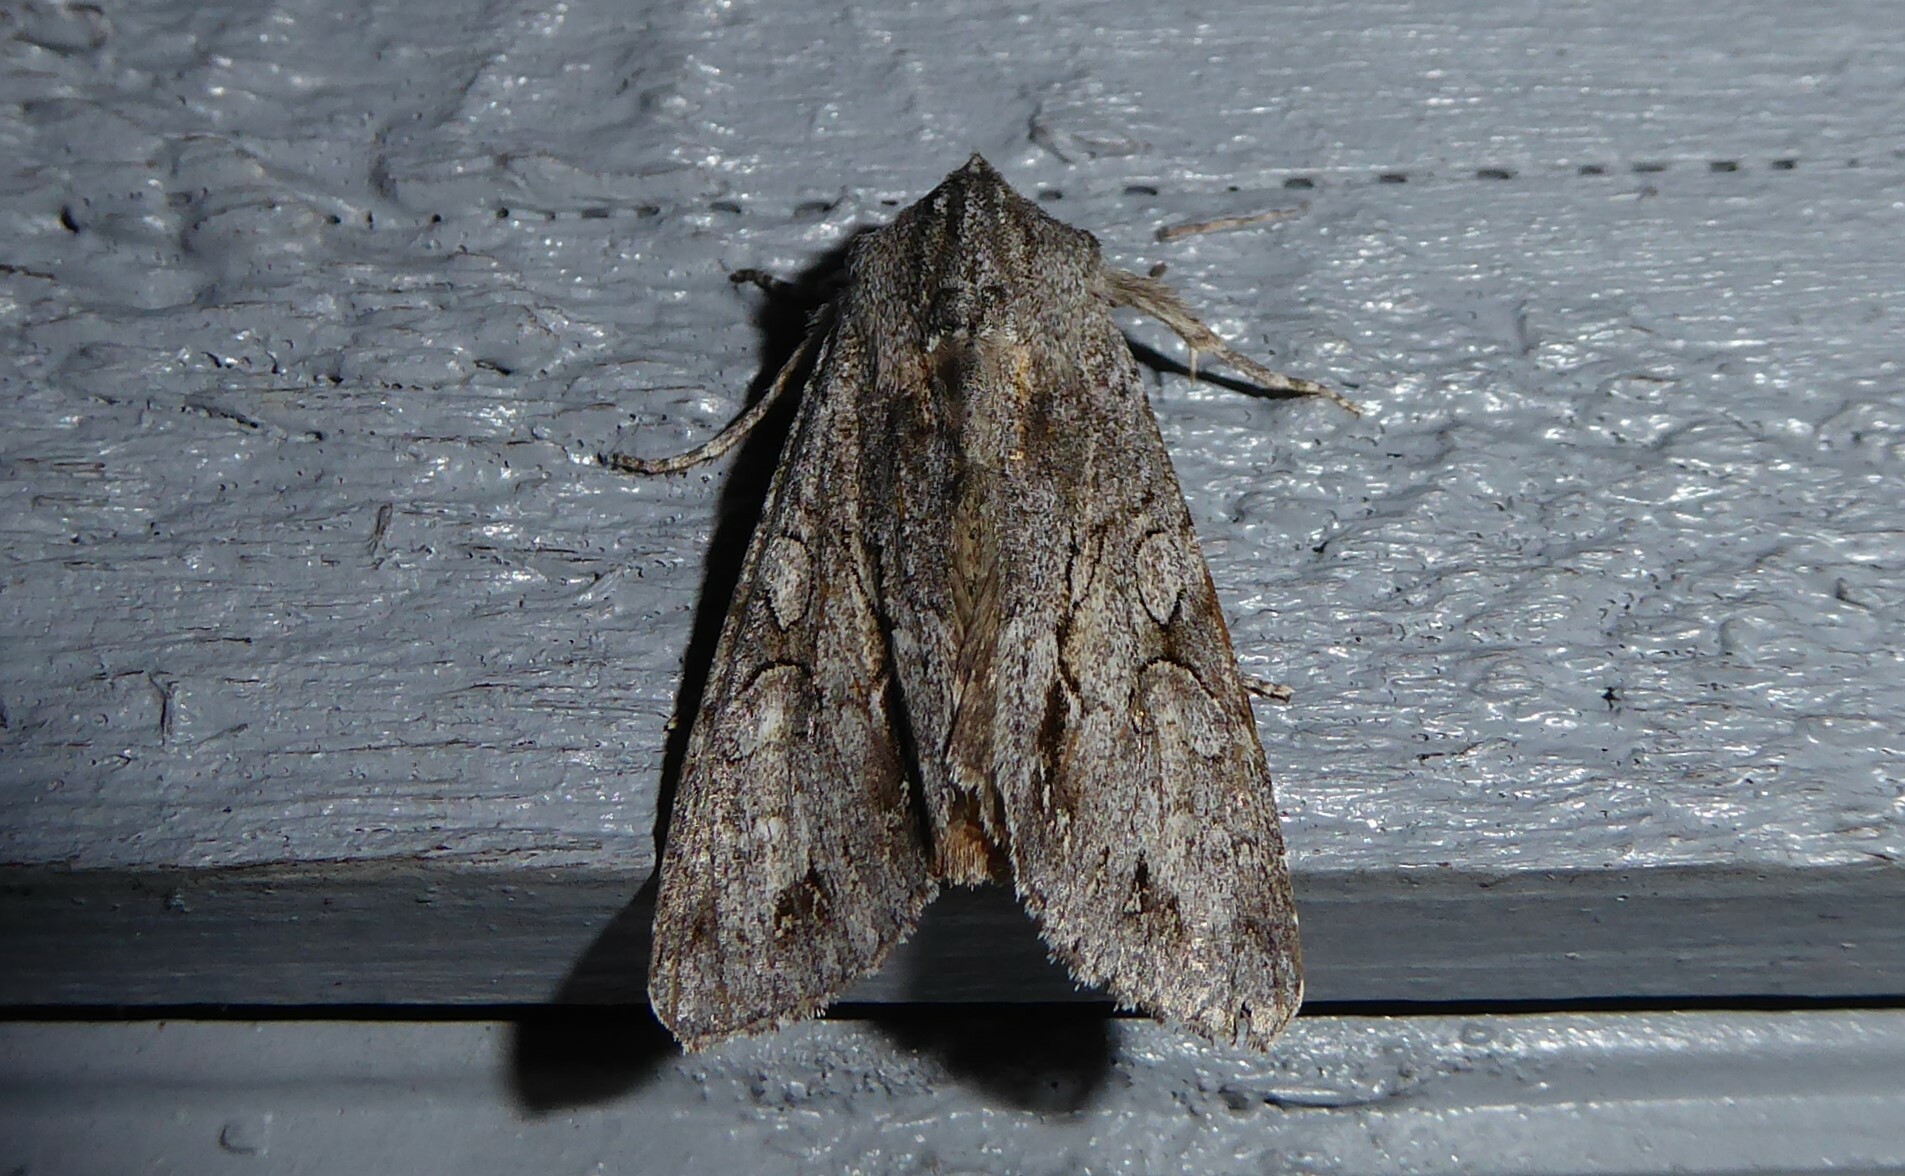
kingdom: Animalia
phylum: Arthropoda
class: Insecta
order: Lepidoptera
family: Noctuidae
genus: Ichneutica
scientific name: Ichneutica
